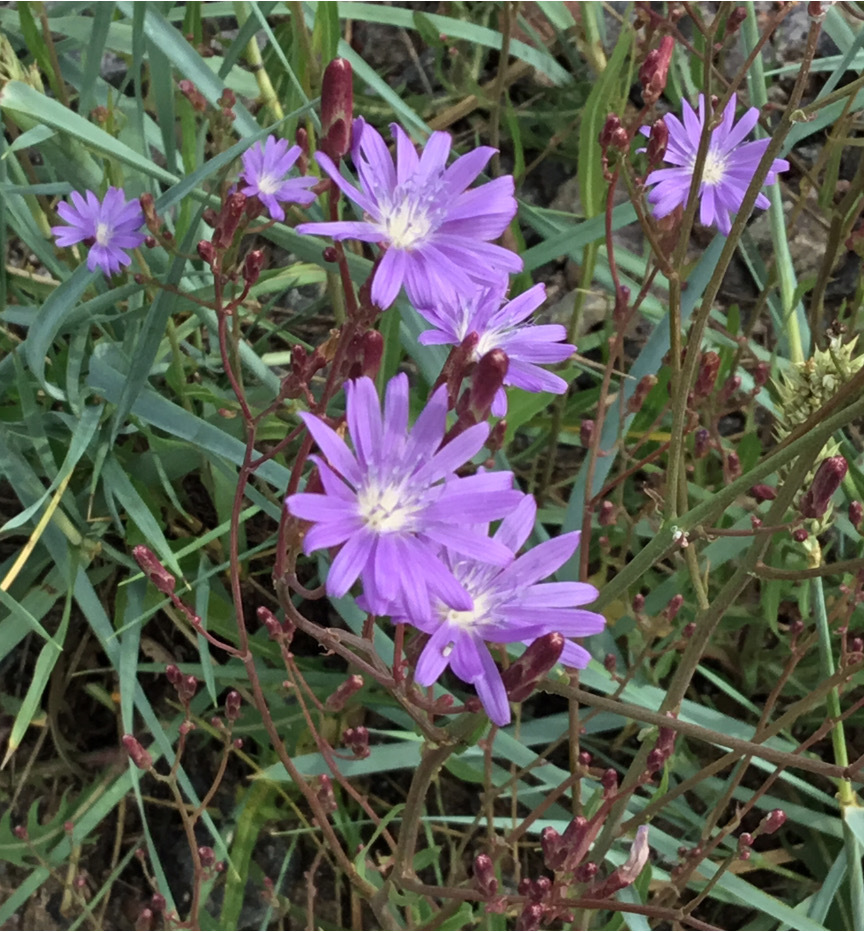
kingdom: Plantae
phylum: Tracheophyta
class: Magnoliopsida
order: Asterales
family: Asteraceae
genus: Lactuca
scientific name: Lactuca tatarica
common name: Blue lettuce
